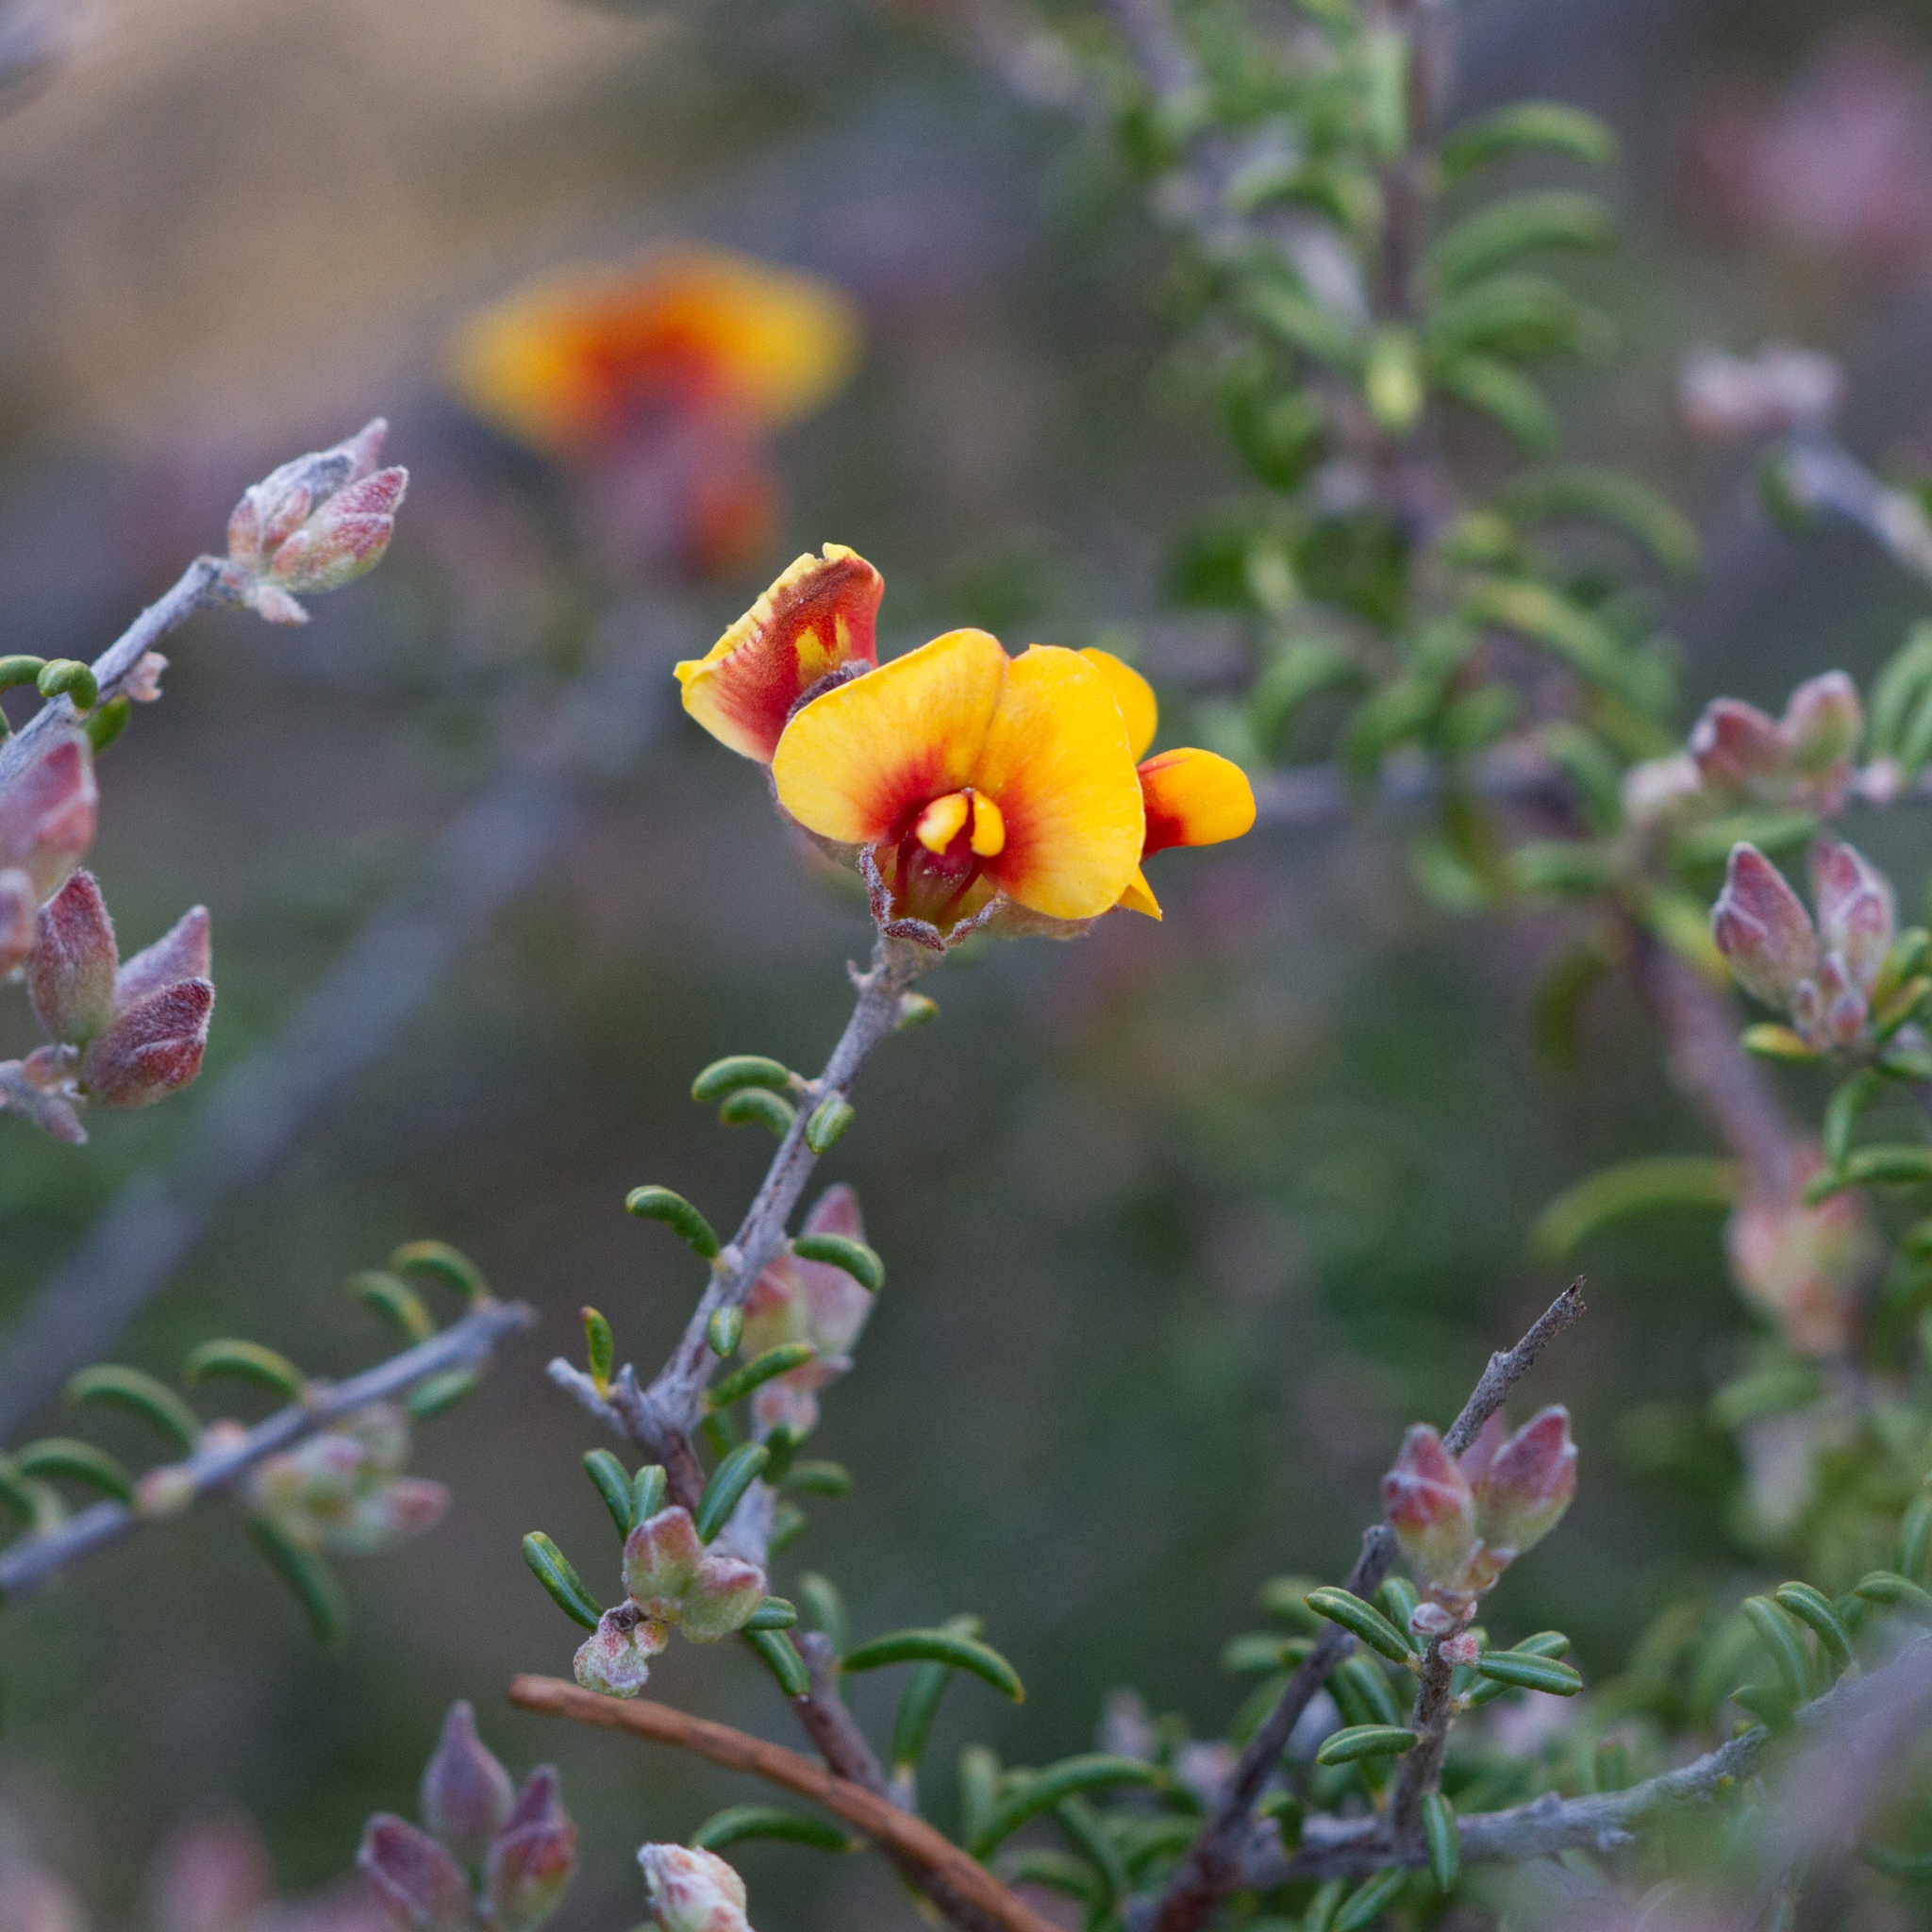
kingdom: Plantae
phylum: Tracheophyta
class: Magnoliopsida
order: Fabales
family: Fabaceae
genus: Dillwynia
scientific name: Dillwynia uncinata
